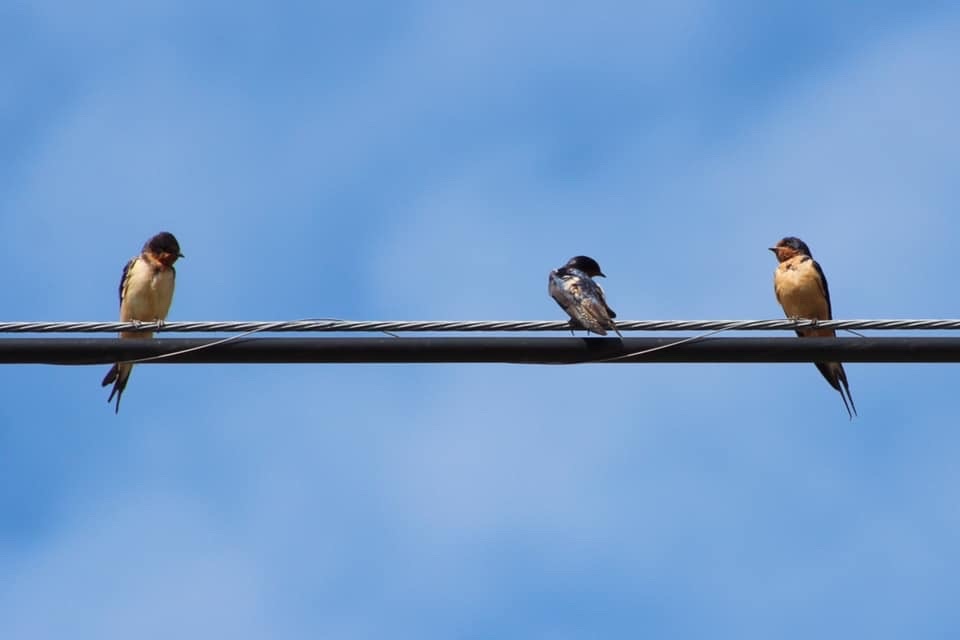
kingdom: Animalia
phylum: Chordata
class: Aves
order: Passeriformes
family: Hirundinidae
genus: Hirundo
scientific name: Hirundo rustica
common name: Barn swallow
